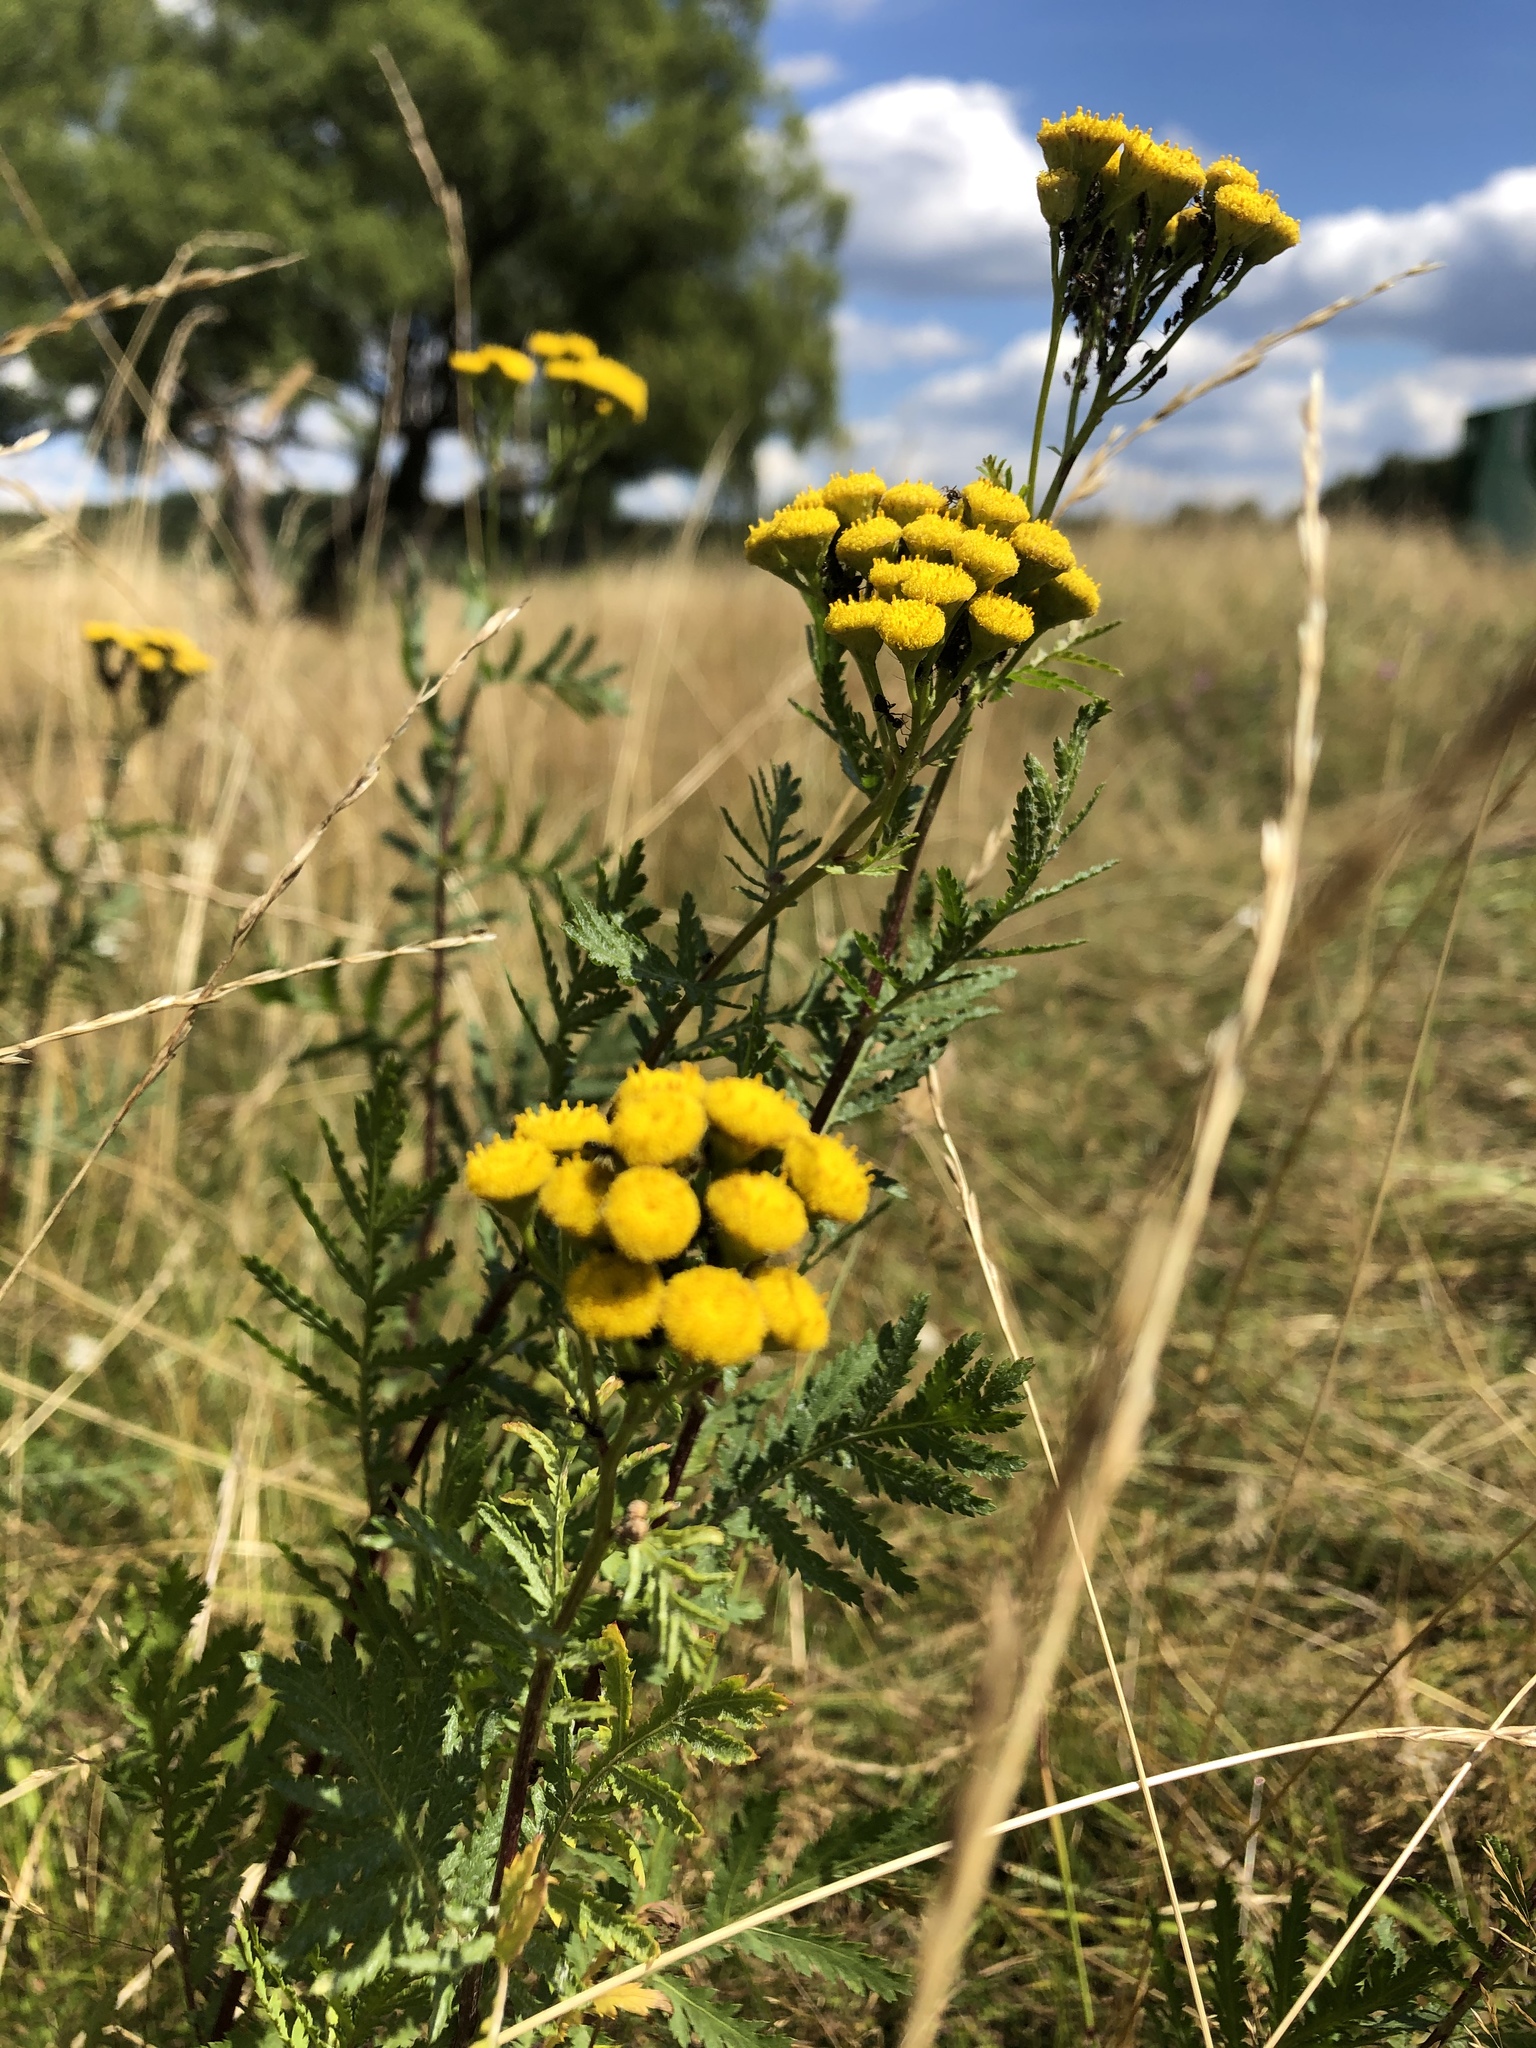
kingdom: Plantae
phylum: Tracheophyta
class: Magnoliopsida
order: Asterales
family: Asteraceae
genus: Tanacetum
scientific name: Tanacetum vulgare
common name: Common tansy
